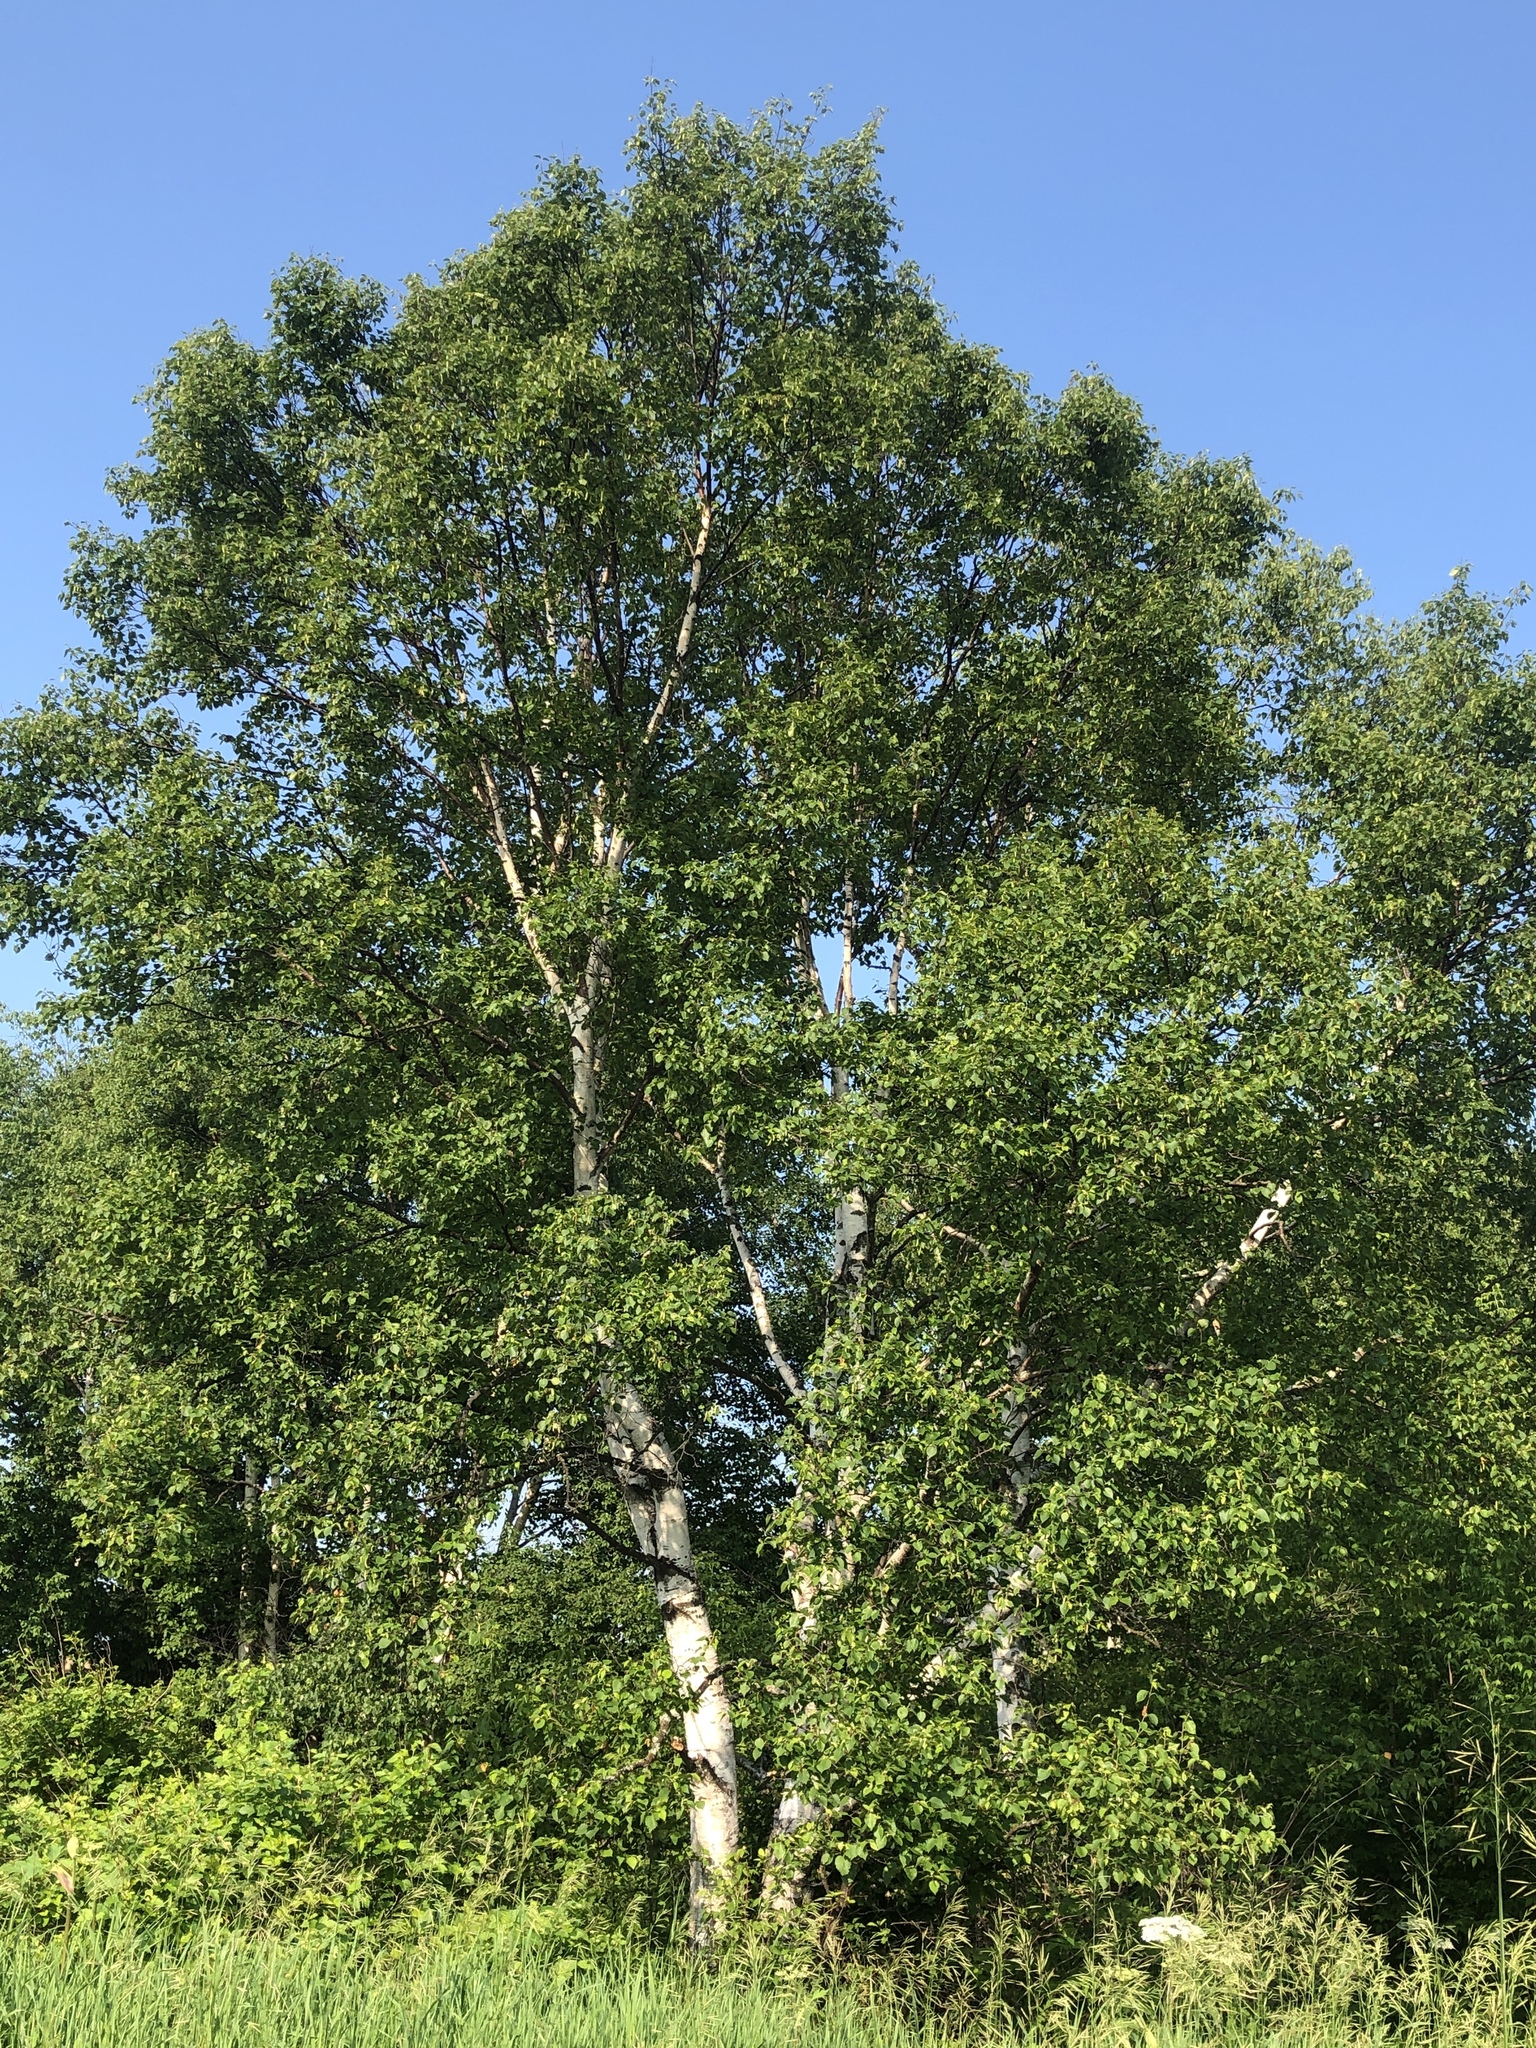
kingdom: Plantae
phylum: Tracheophyta
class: Magnoliopsida
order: Fagales
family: Betulaceae
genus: Betula
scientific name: Betula papyrifera
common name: Paper birch
